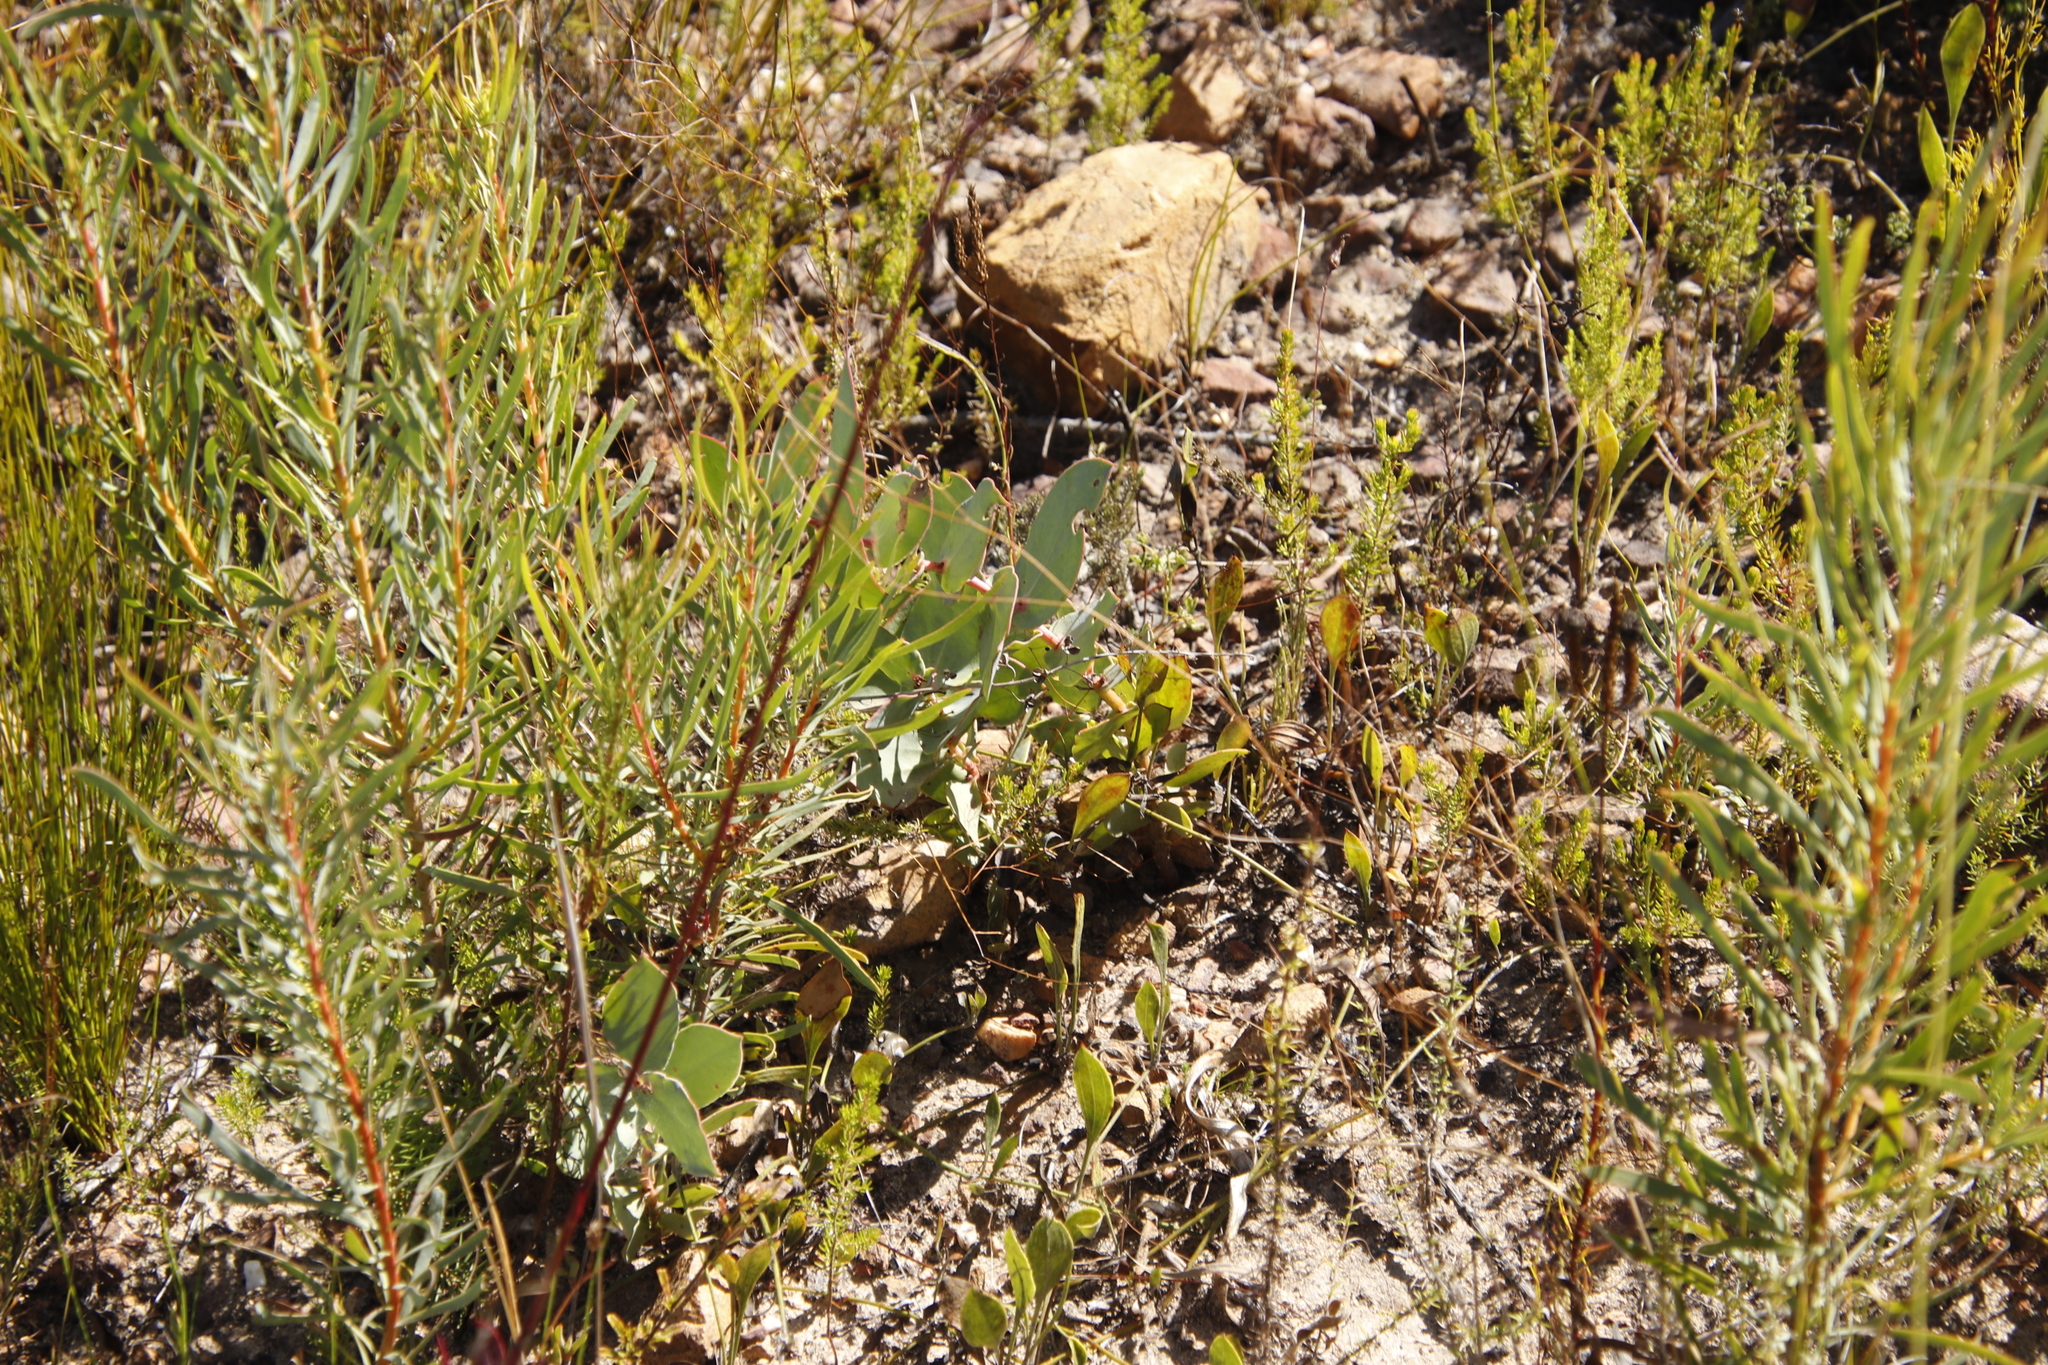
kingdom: Plantae
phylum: Tracheophyta
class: Magnoliopsida
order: Proteales
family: Proteaceae
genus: Protea
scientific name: Protea amplexicaulis
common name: Clasping-leaf sugarbush
